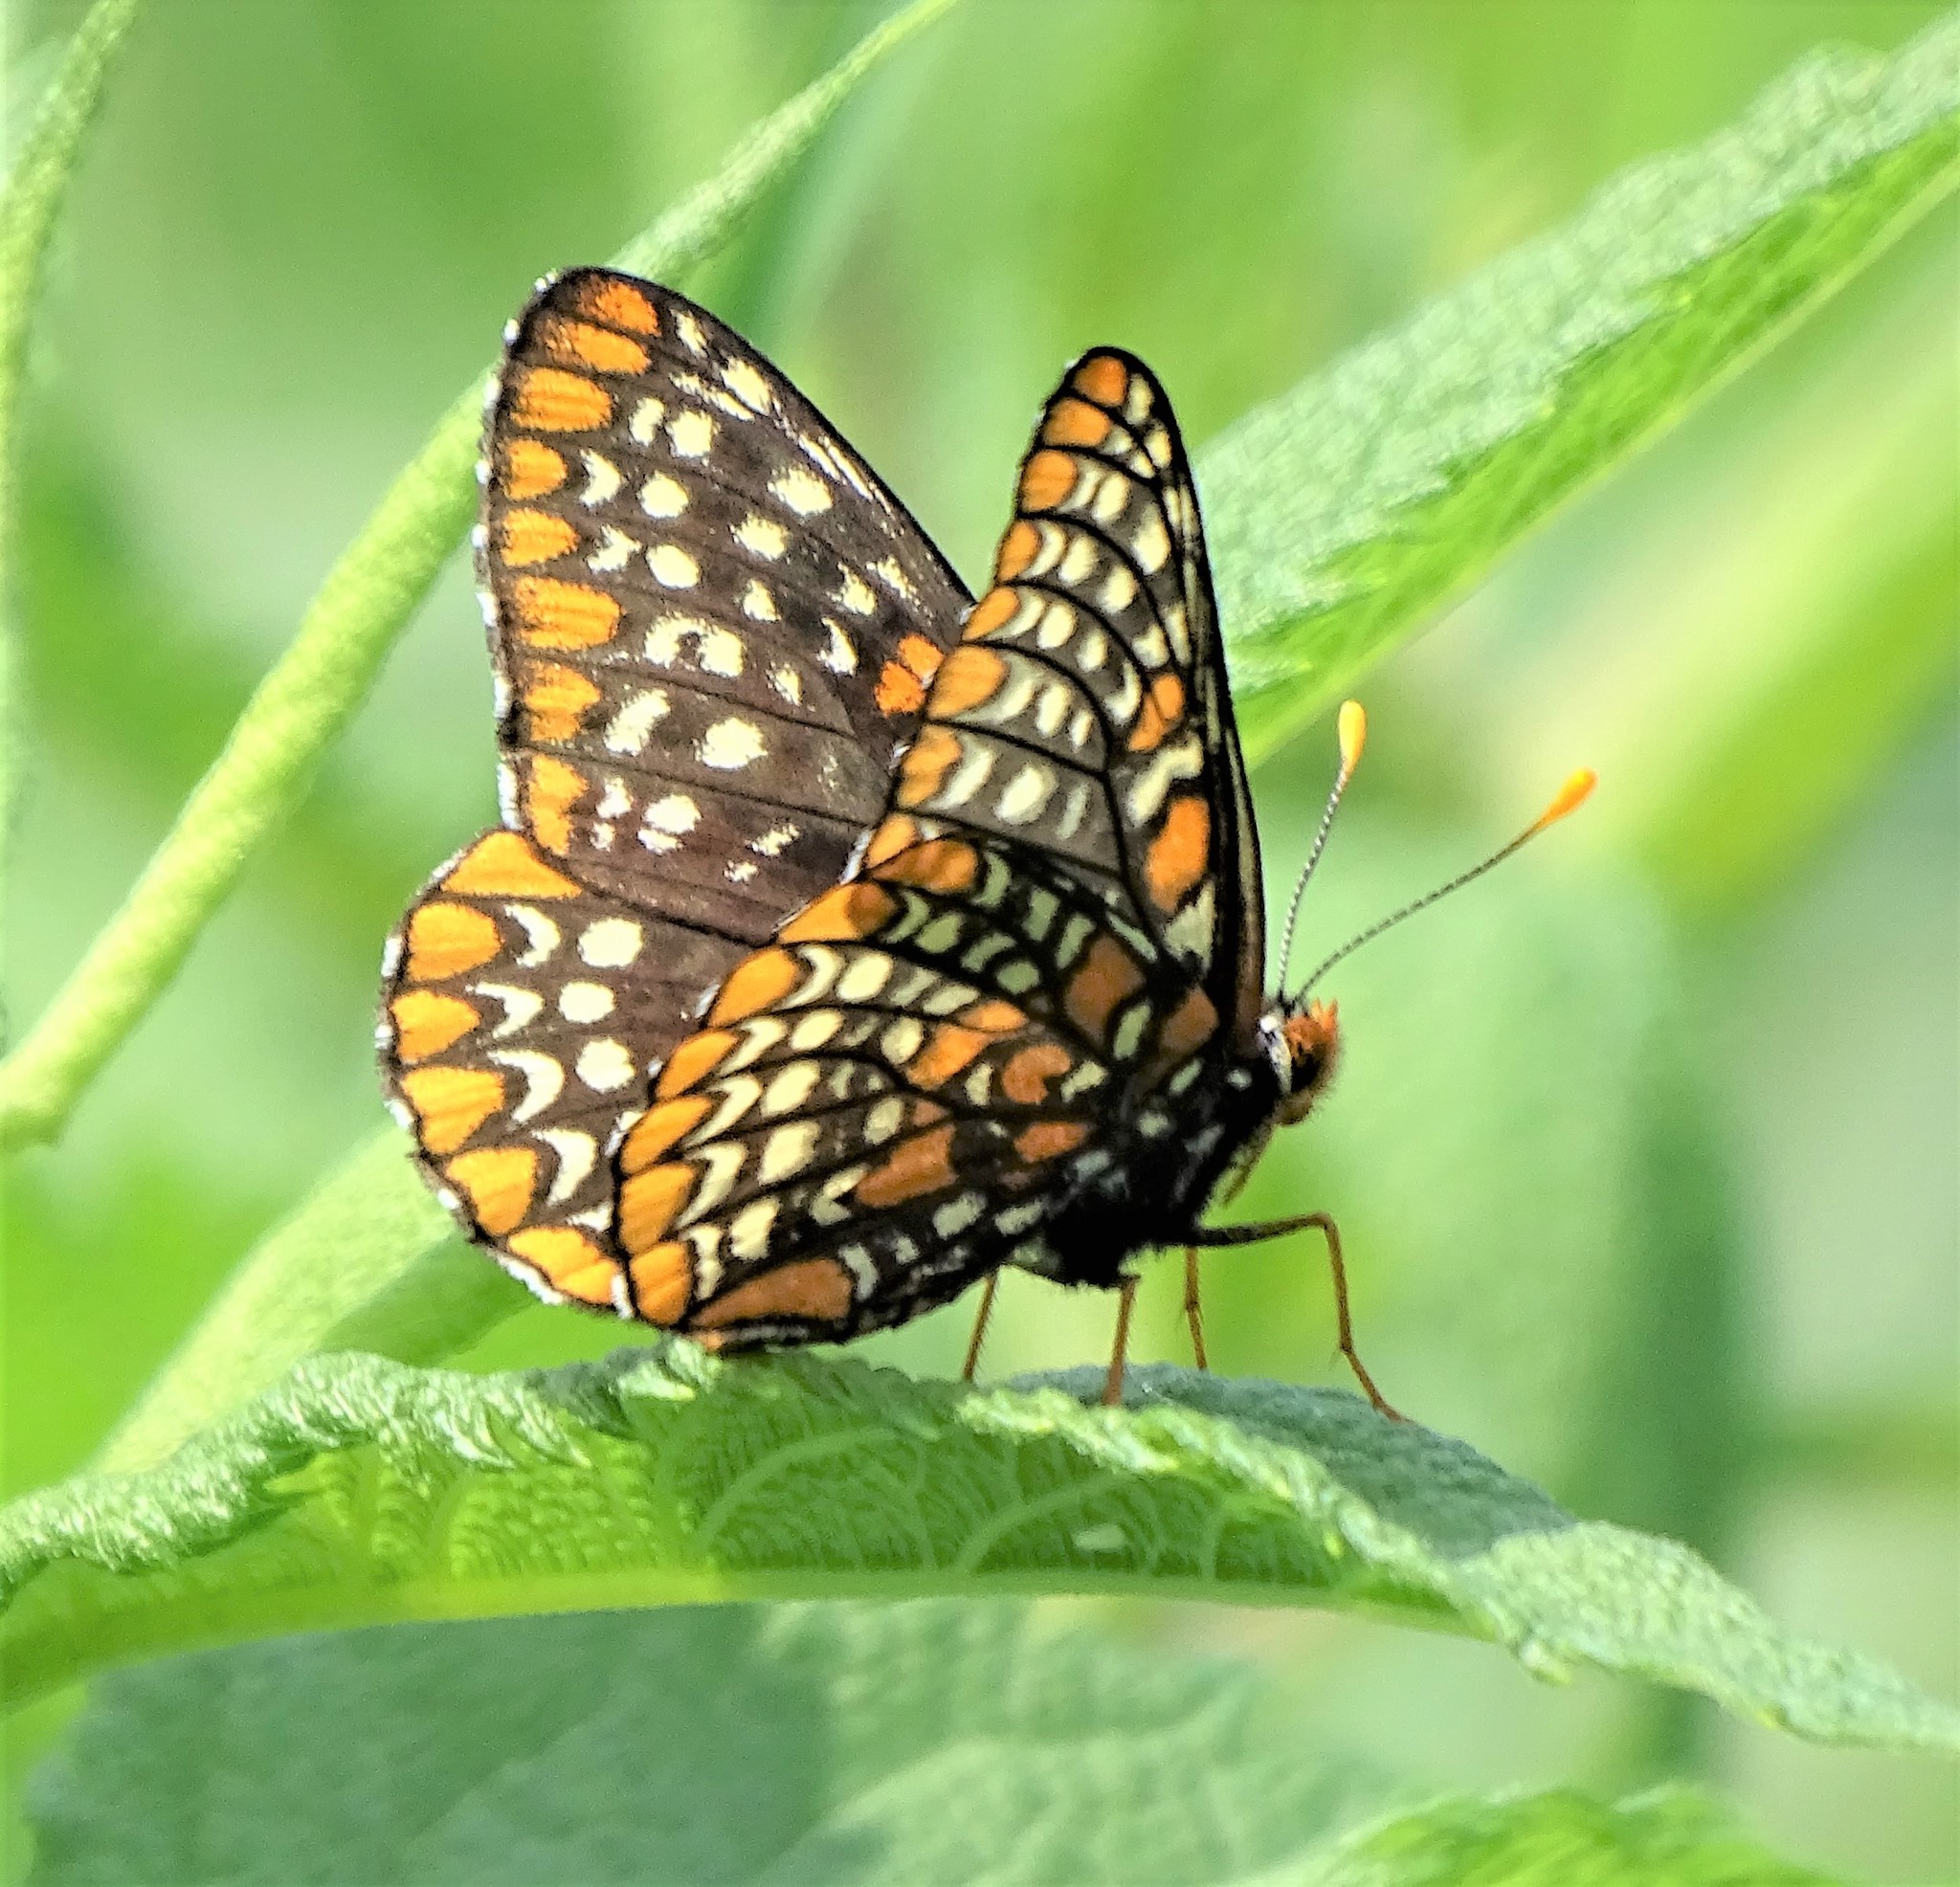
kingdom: Animalia
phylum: Arthropoda
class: Insecta
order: Lepidoptera
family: Nymphalidae
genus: Euphydryas
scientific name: Euphydryas phaeton
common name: Baltimore checkerspot
